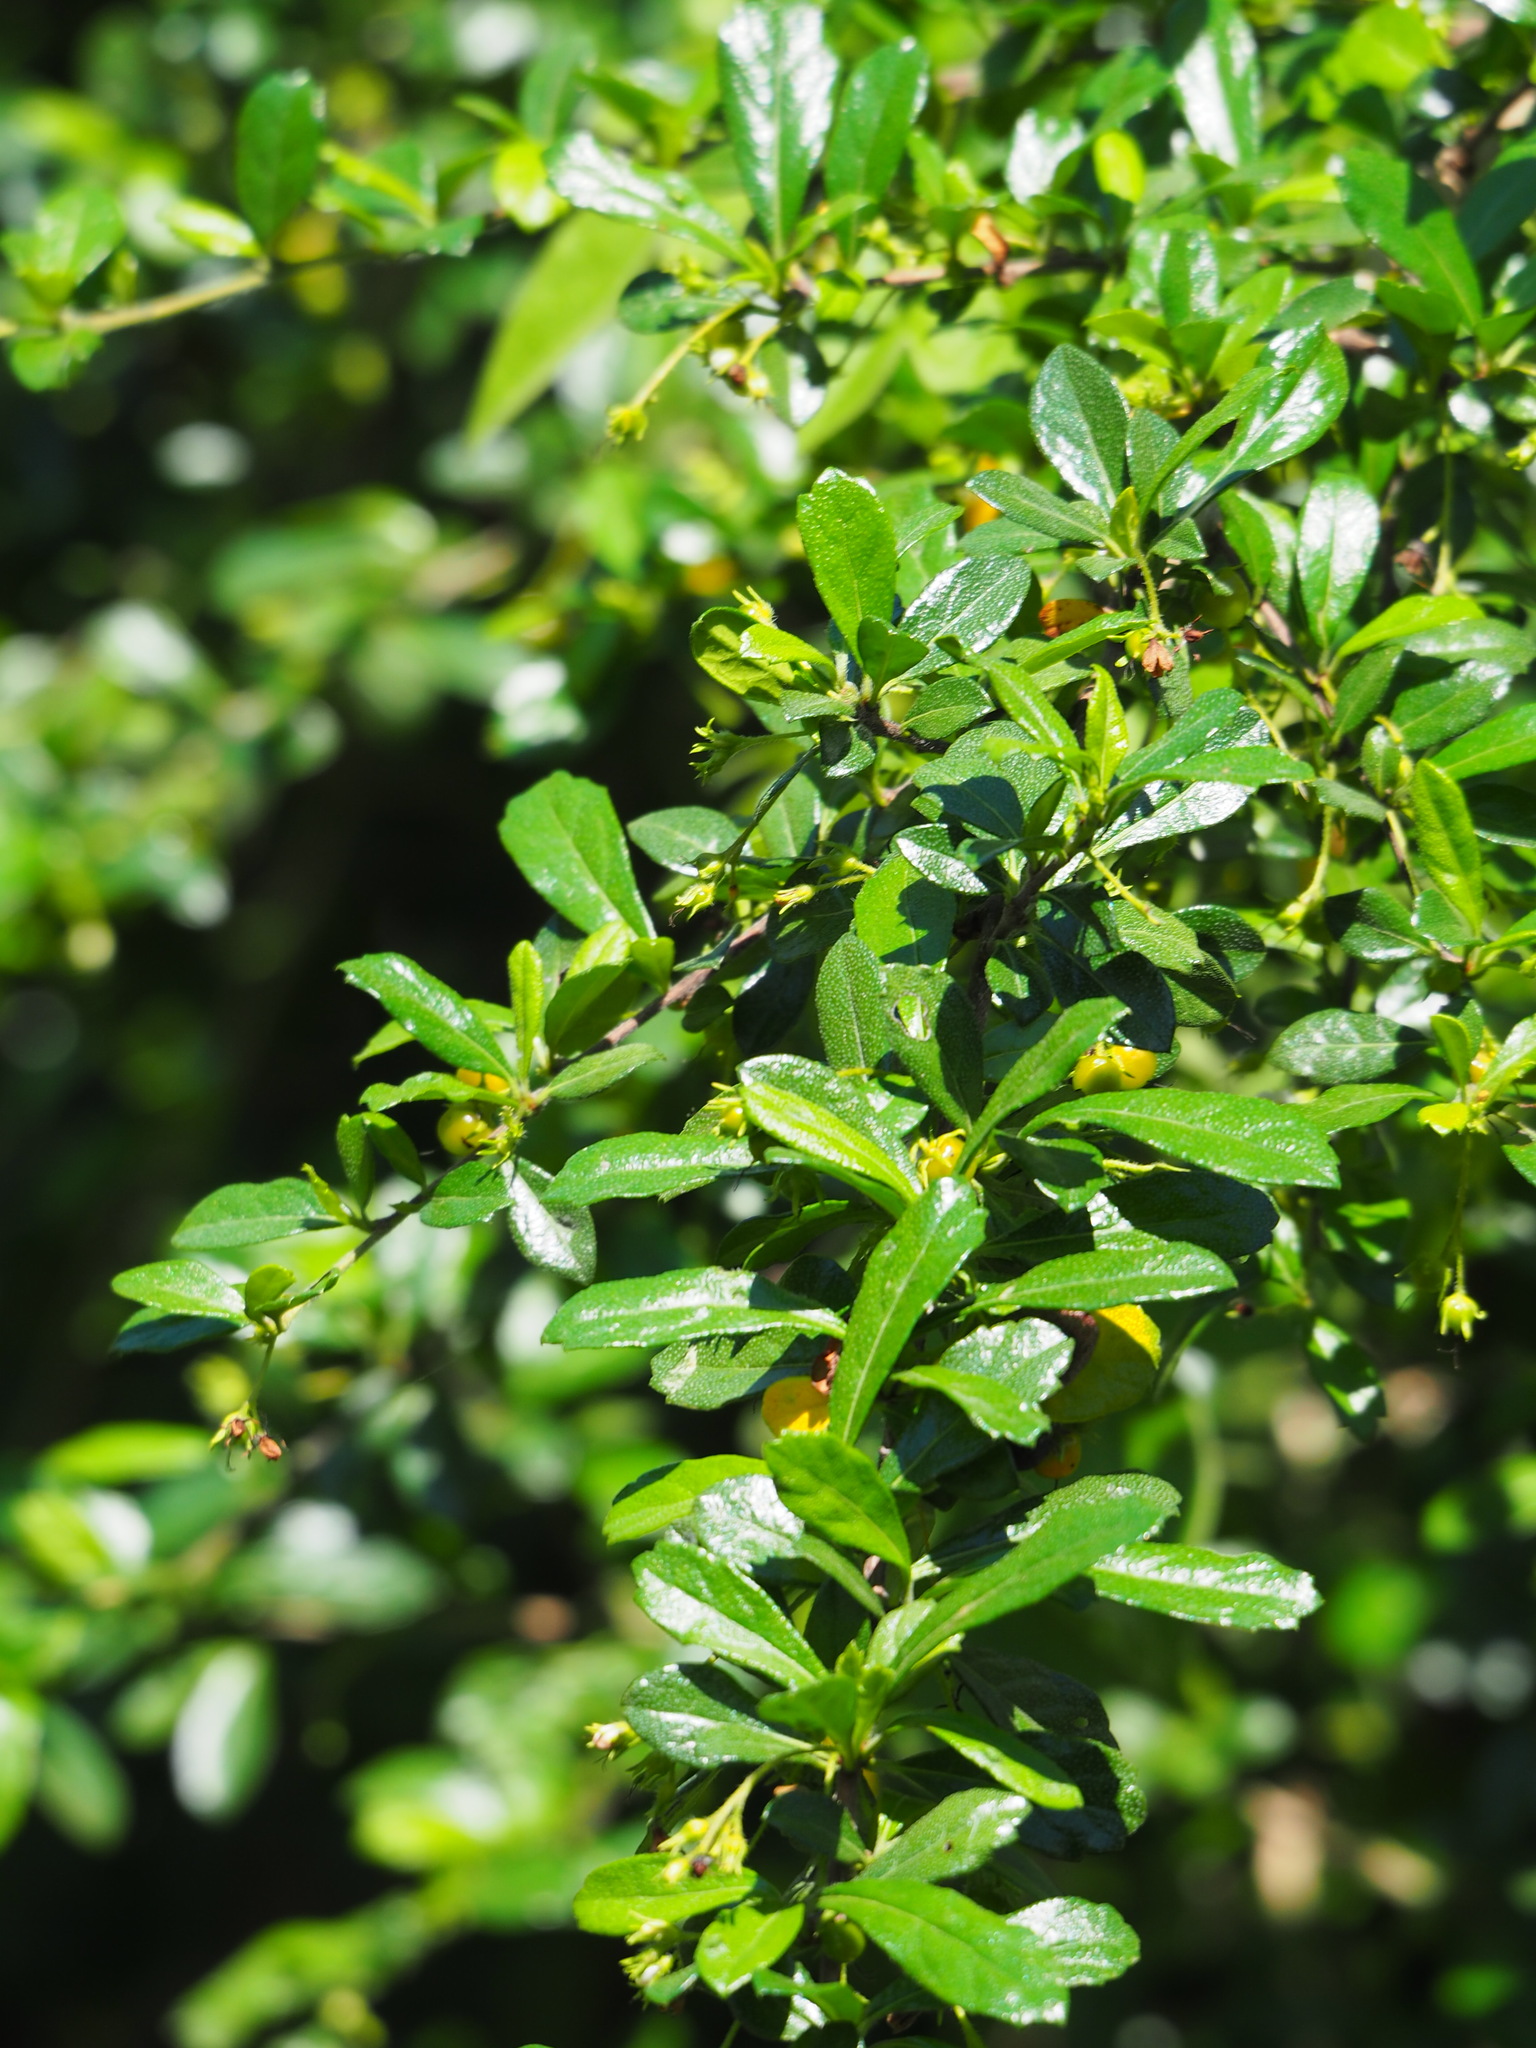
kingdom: Plantae
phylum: Tracheophyta
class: Magnoliopsida
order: Boraginales
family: Ehretiaceae
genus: Ehretia
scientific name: Ehretia microphylla
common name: Fukien-tea
